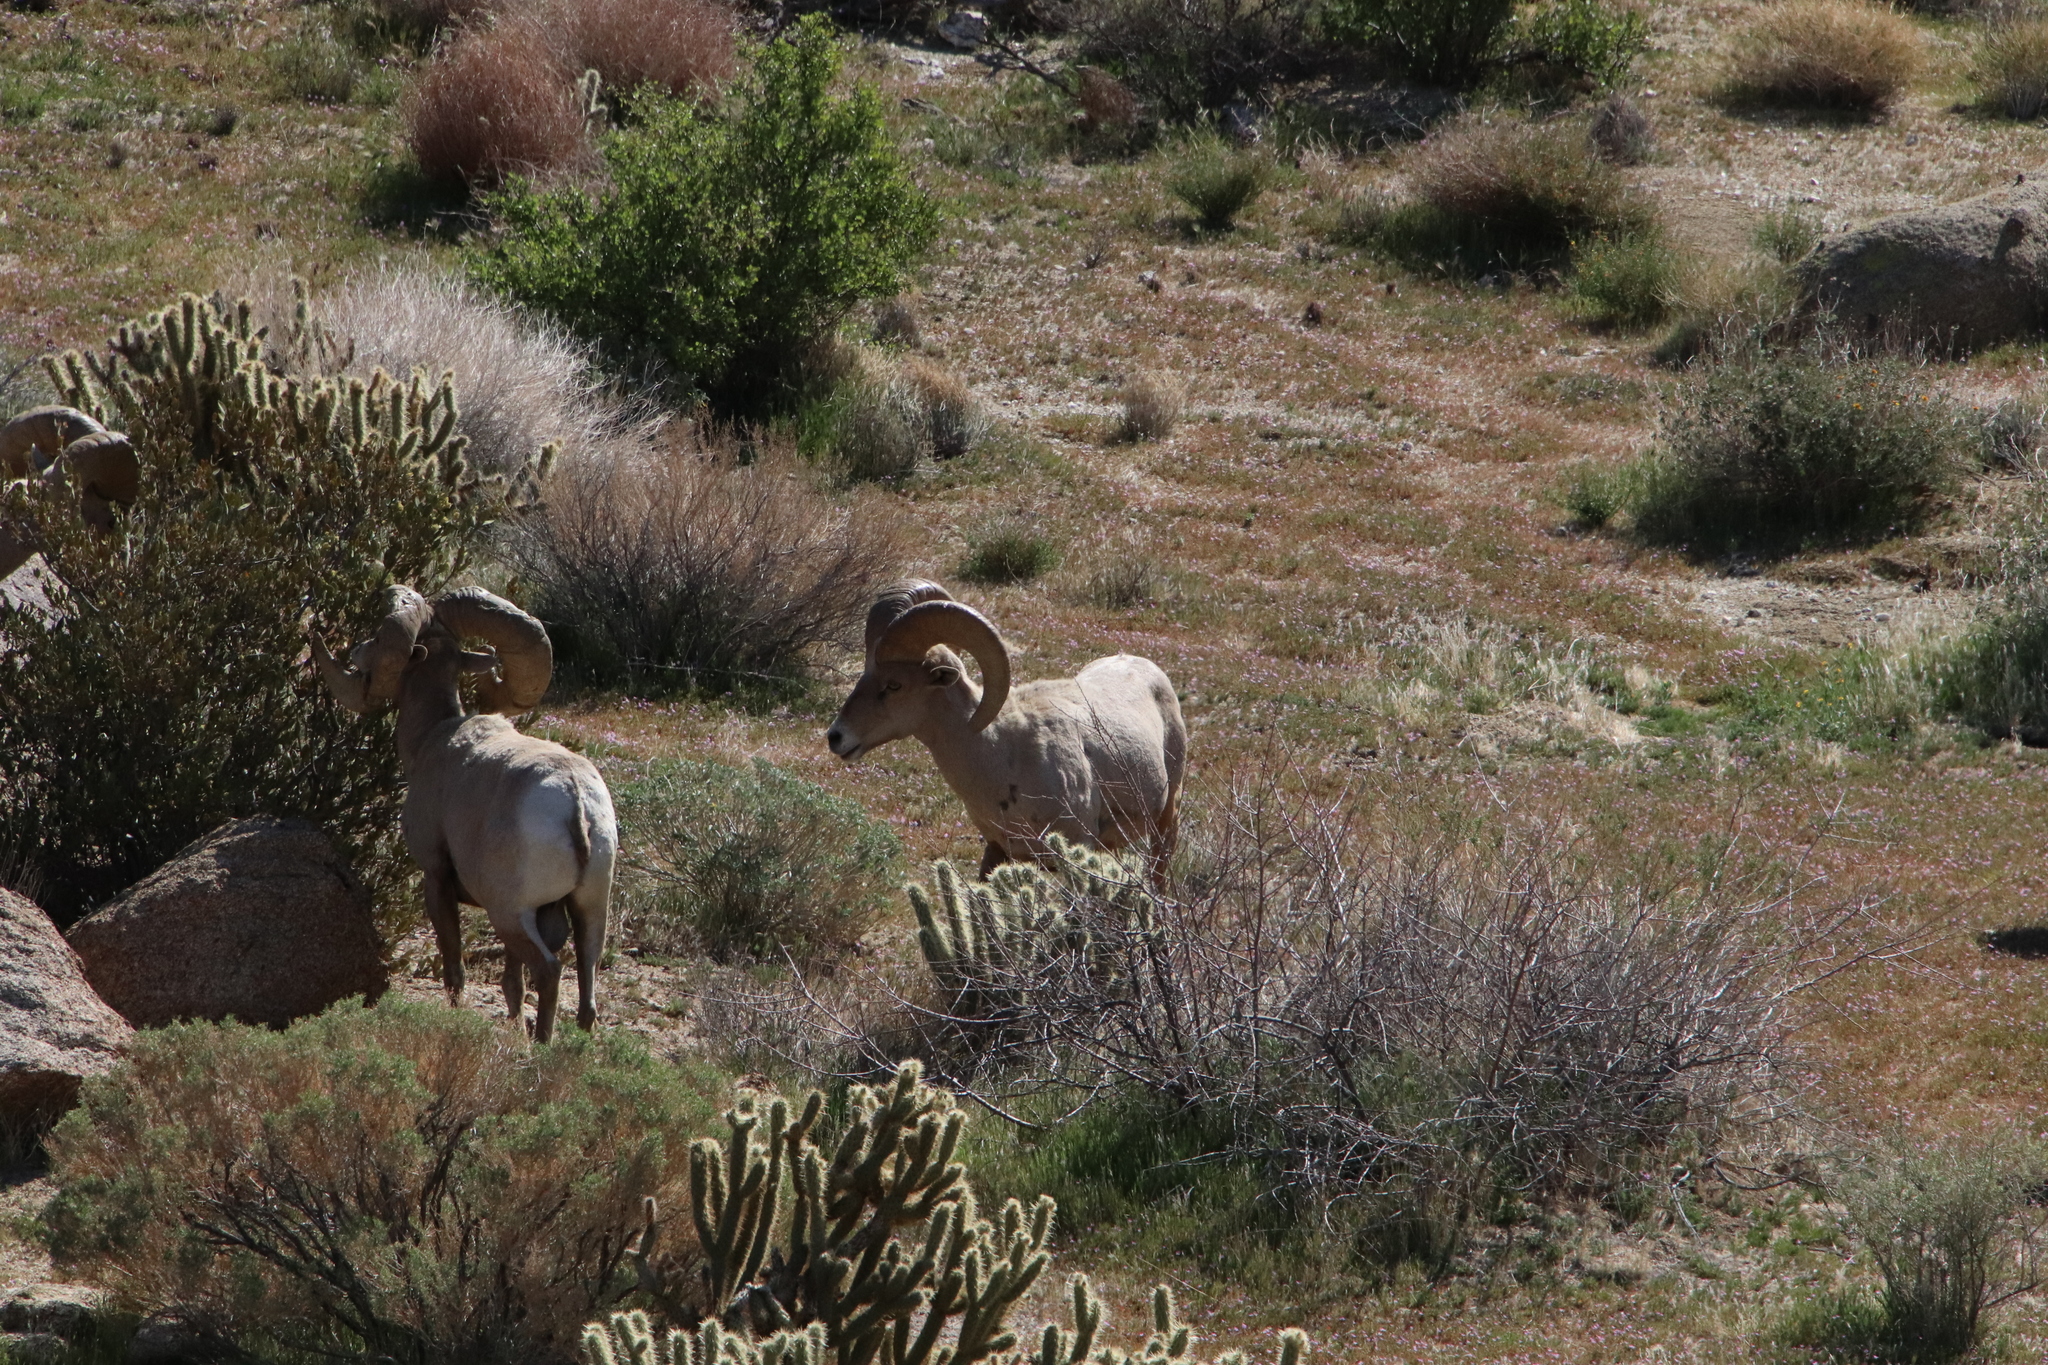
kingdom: Animalia
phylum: Chordata
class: Mammalia
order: Artiodactyla
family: Bovidae
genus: Ovis
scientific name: Ovis canadensis
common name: Bighorn sheep
